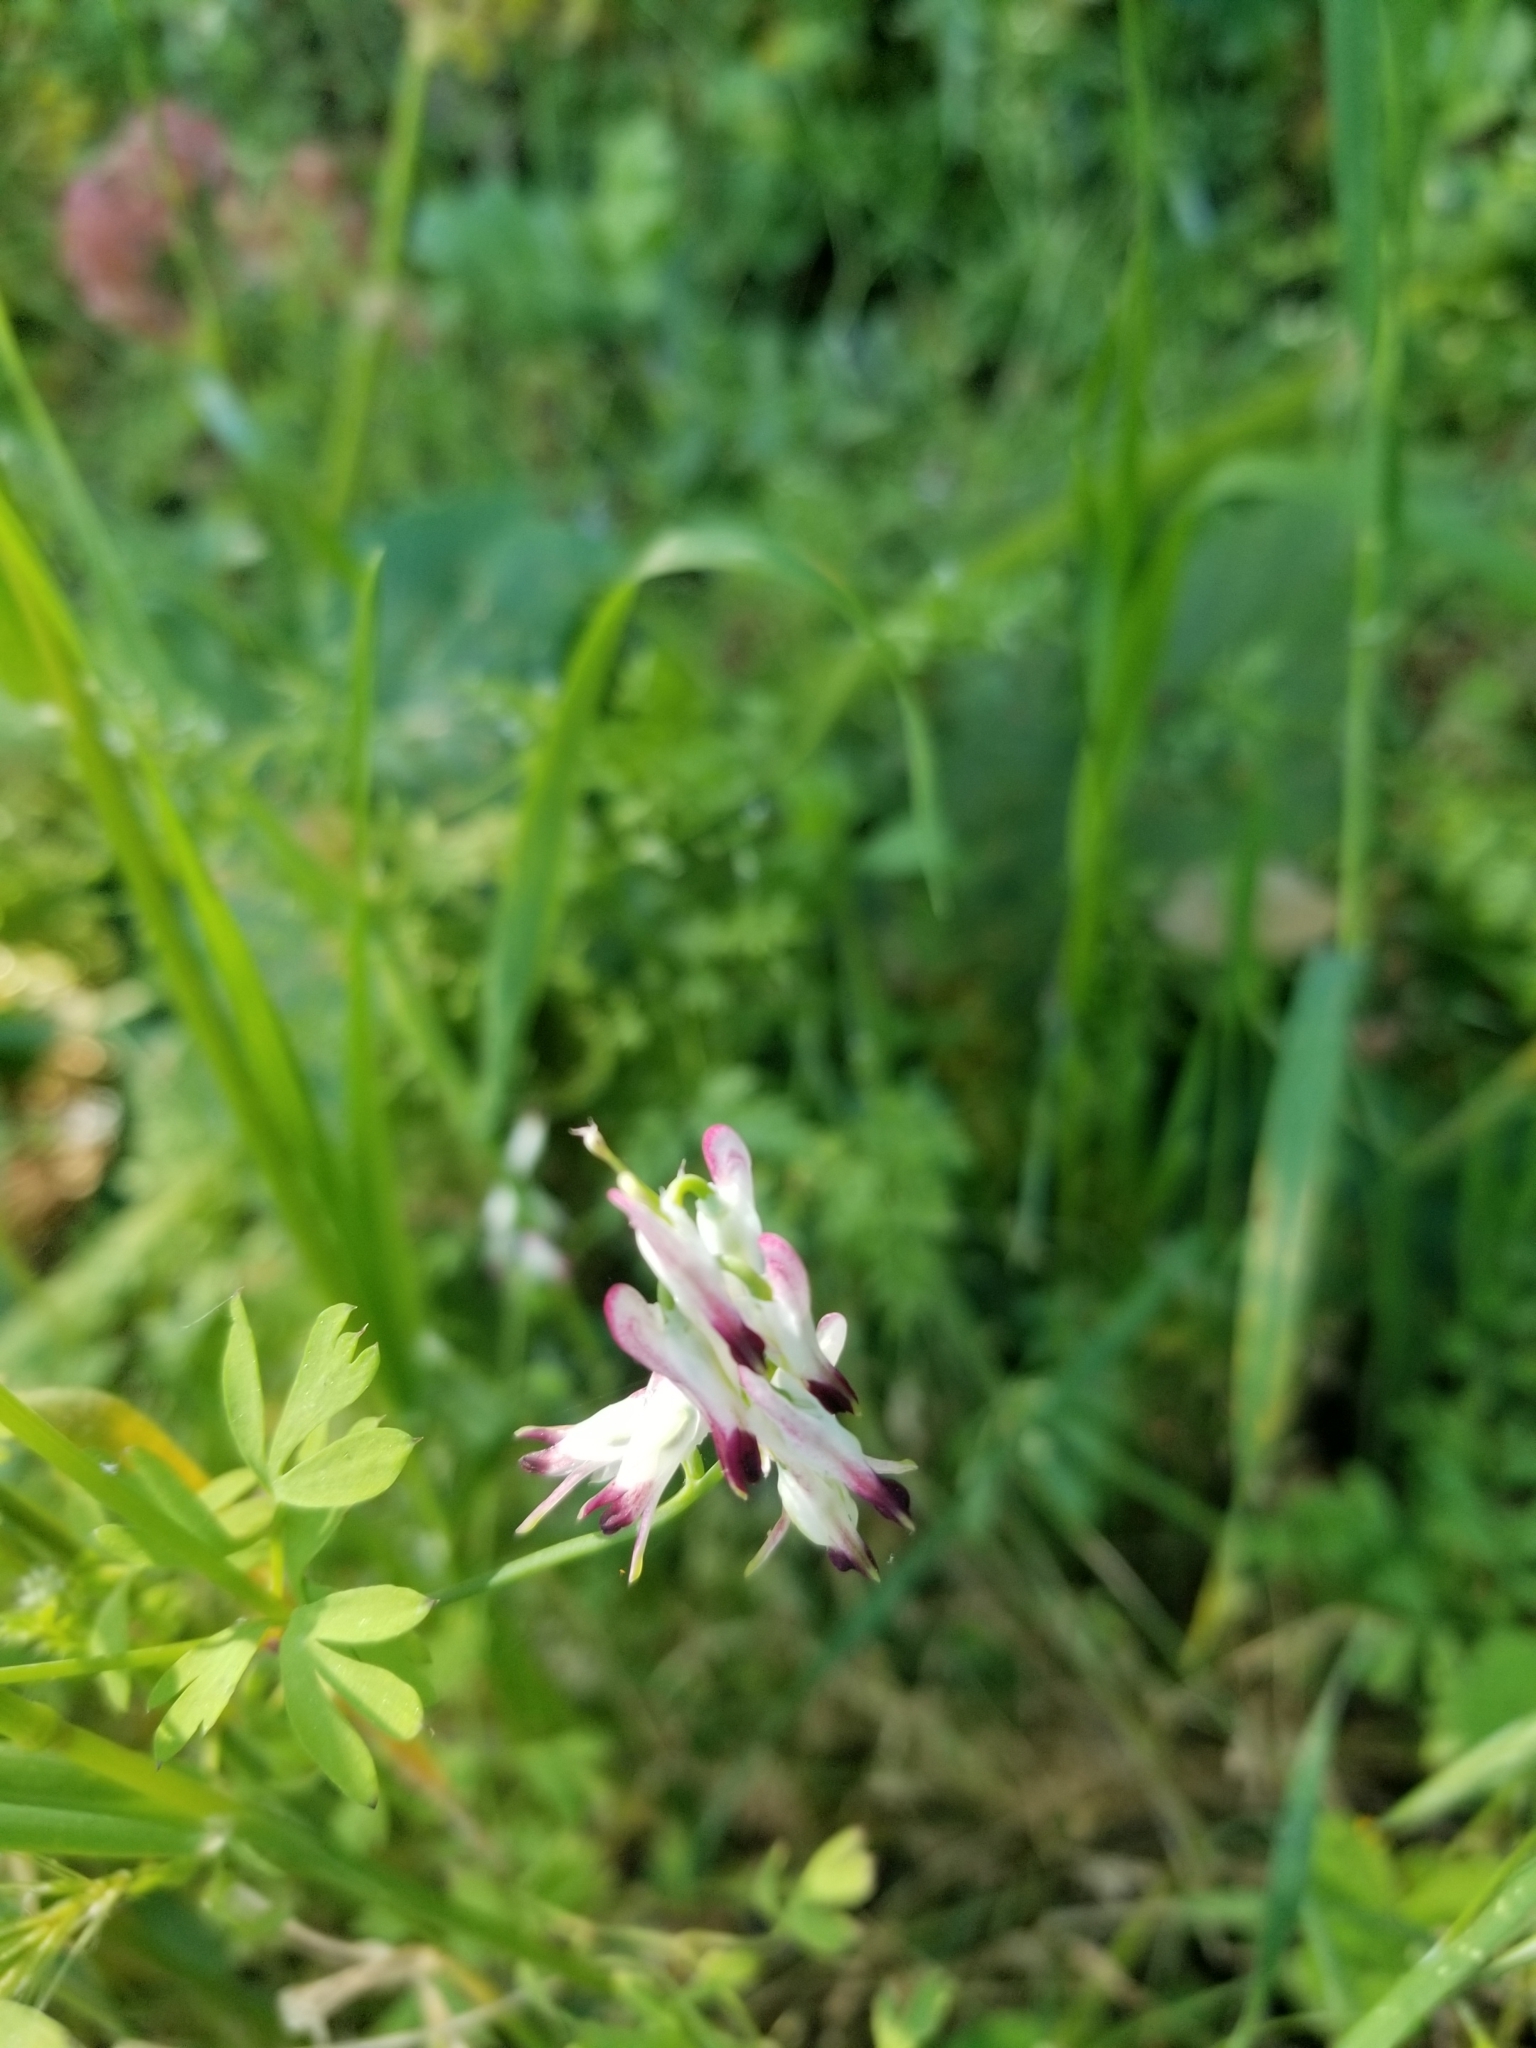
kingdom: Plantae
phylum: Tracheophyta
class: Magnoliopsida
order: Ranunculales
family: Papaveraceae
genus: Fumaria
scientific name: Fumaria capreolata
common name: White ramping-fumitory
